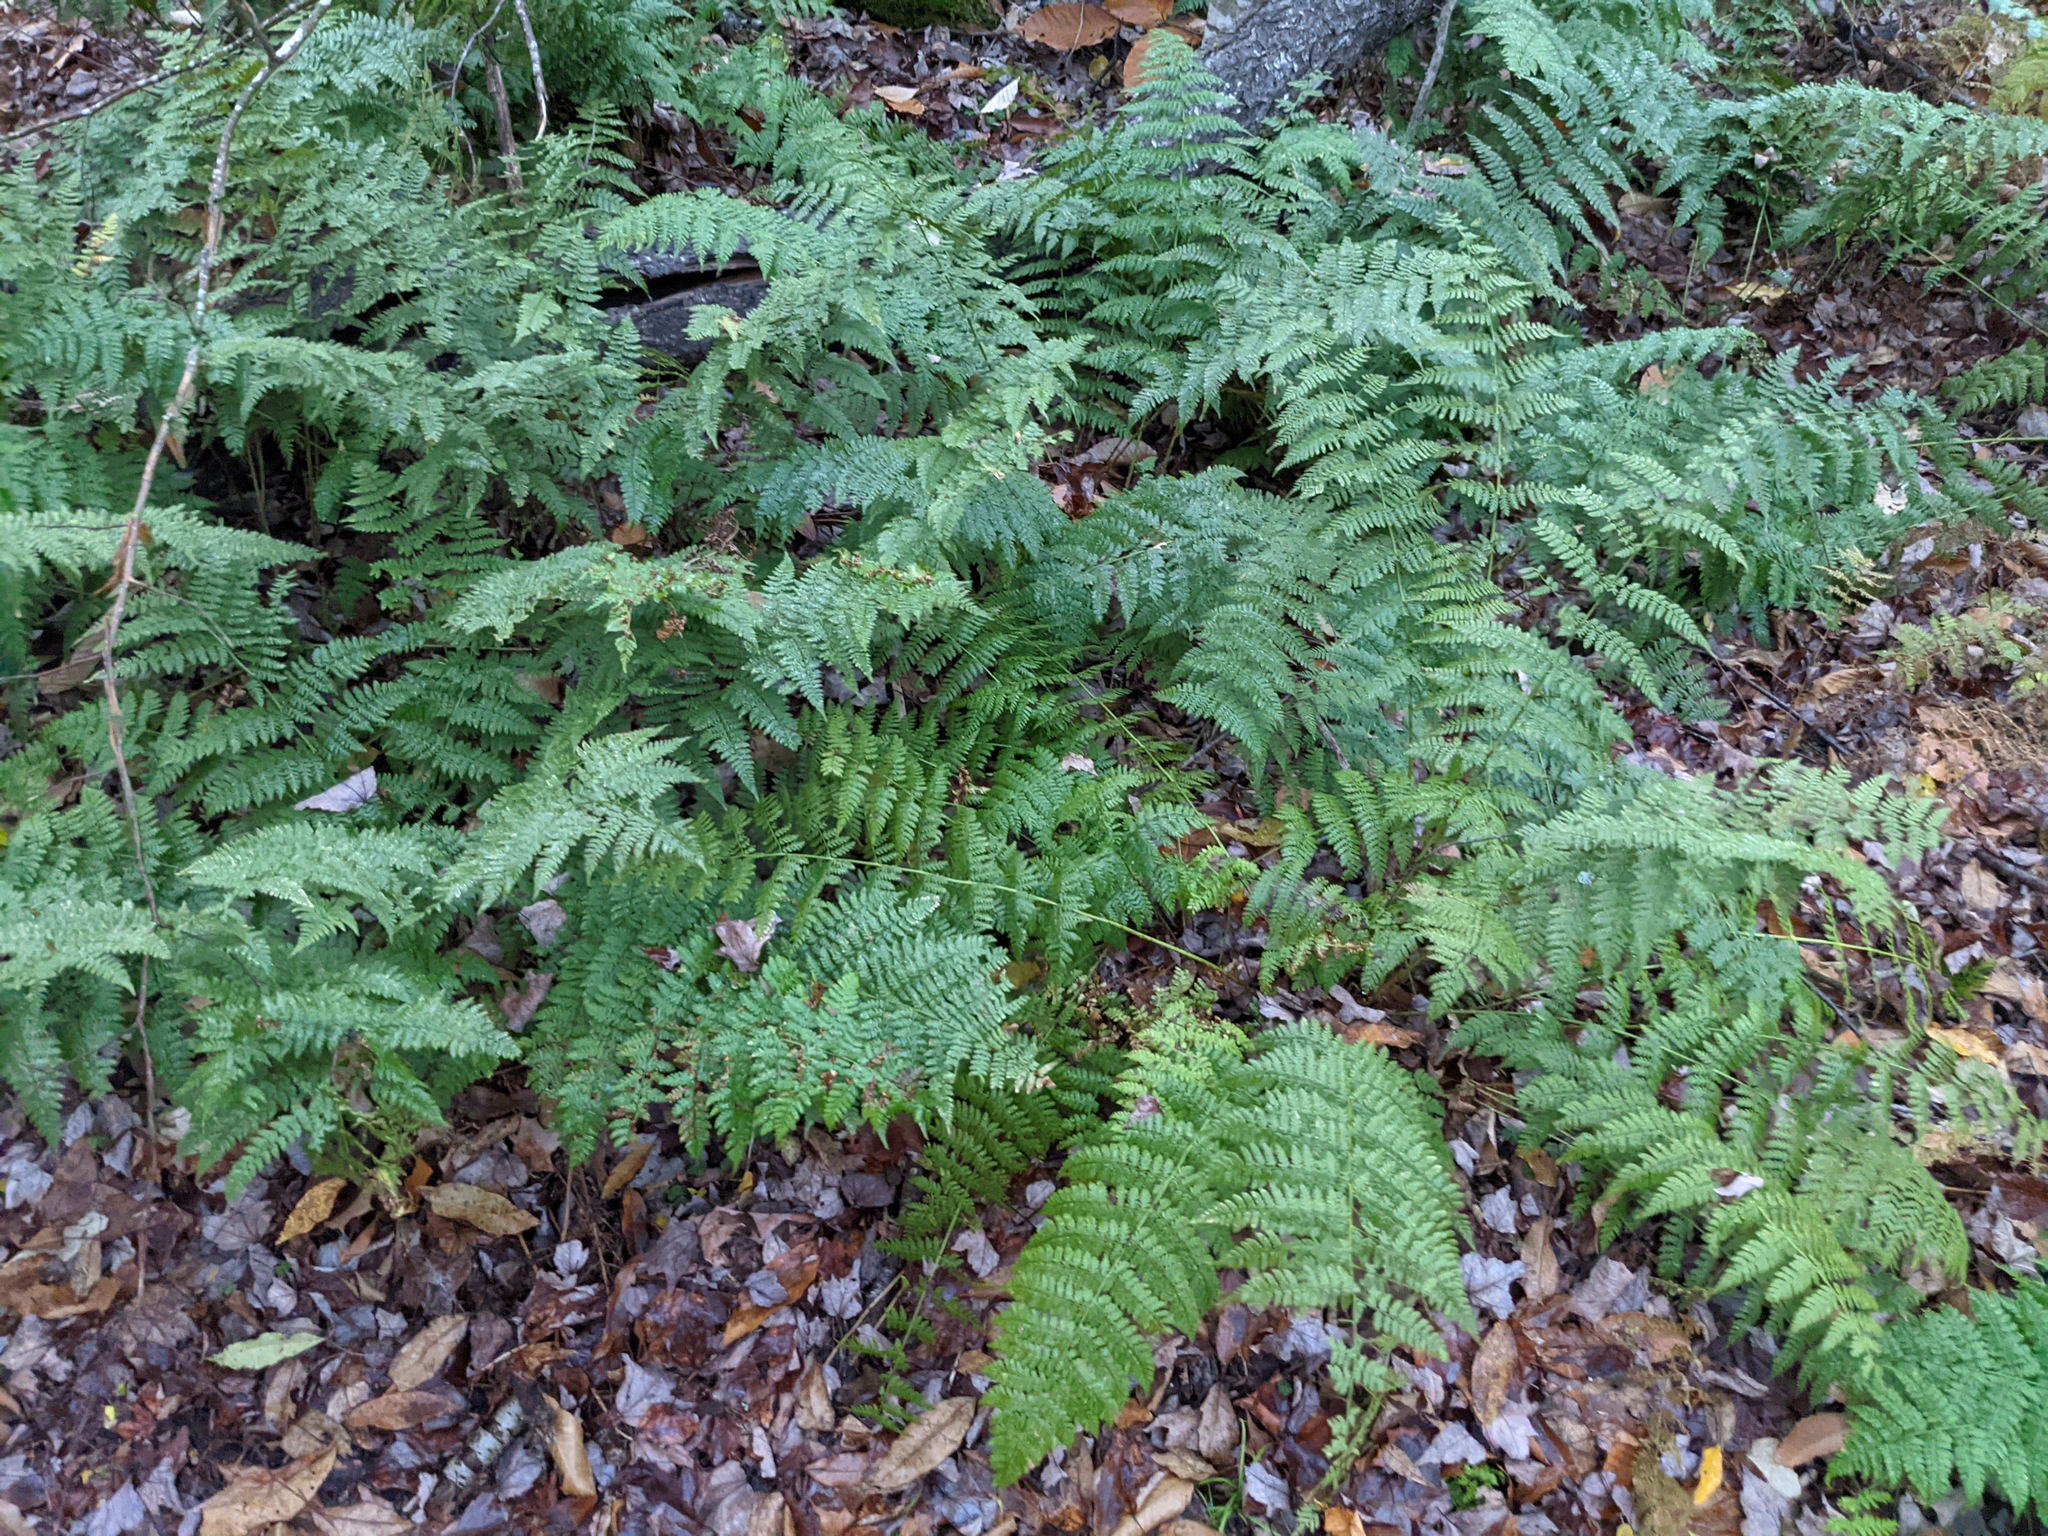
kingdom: Plantae
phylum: Tracheophyta
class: Polypodiopsida
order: Polypodiales
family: Dryopteridaceae
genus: Dryopteris
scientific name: Dryopteris intermedia
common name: Evergreen wood fern
